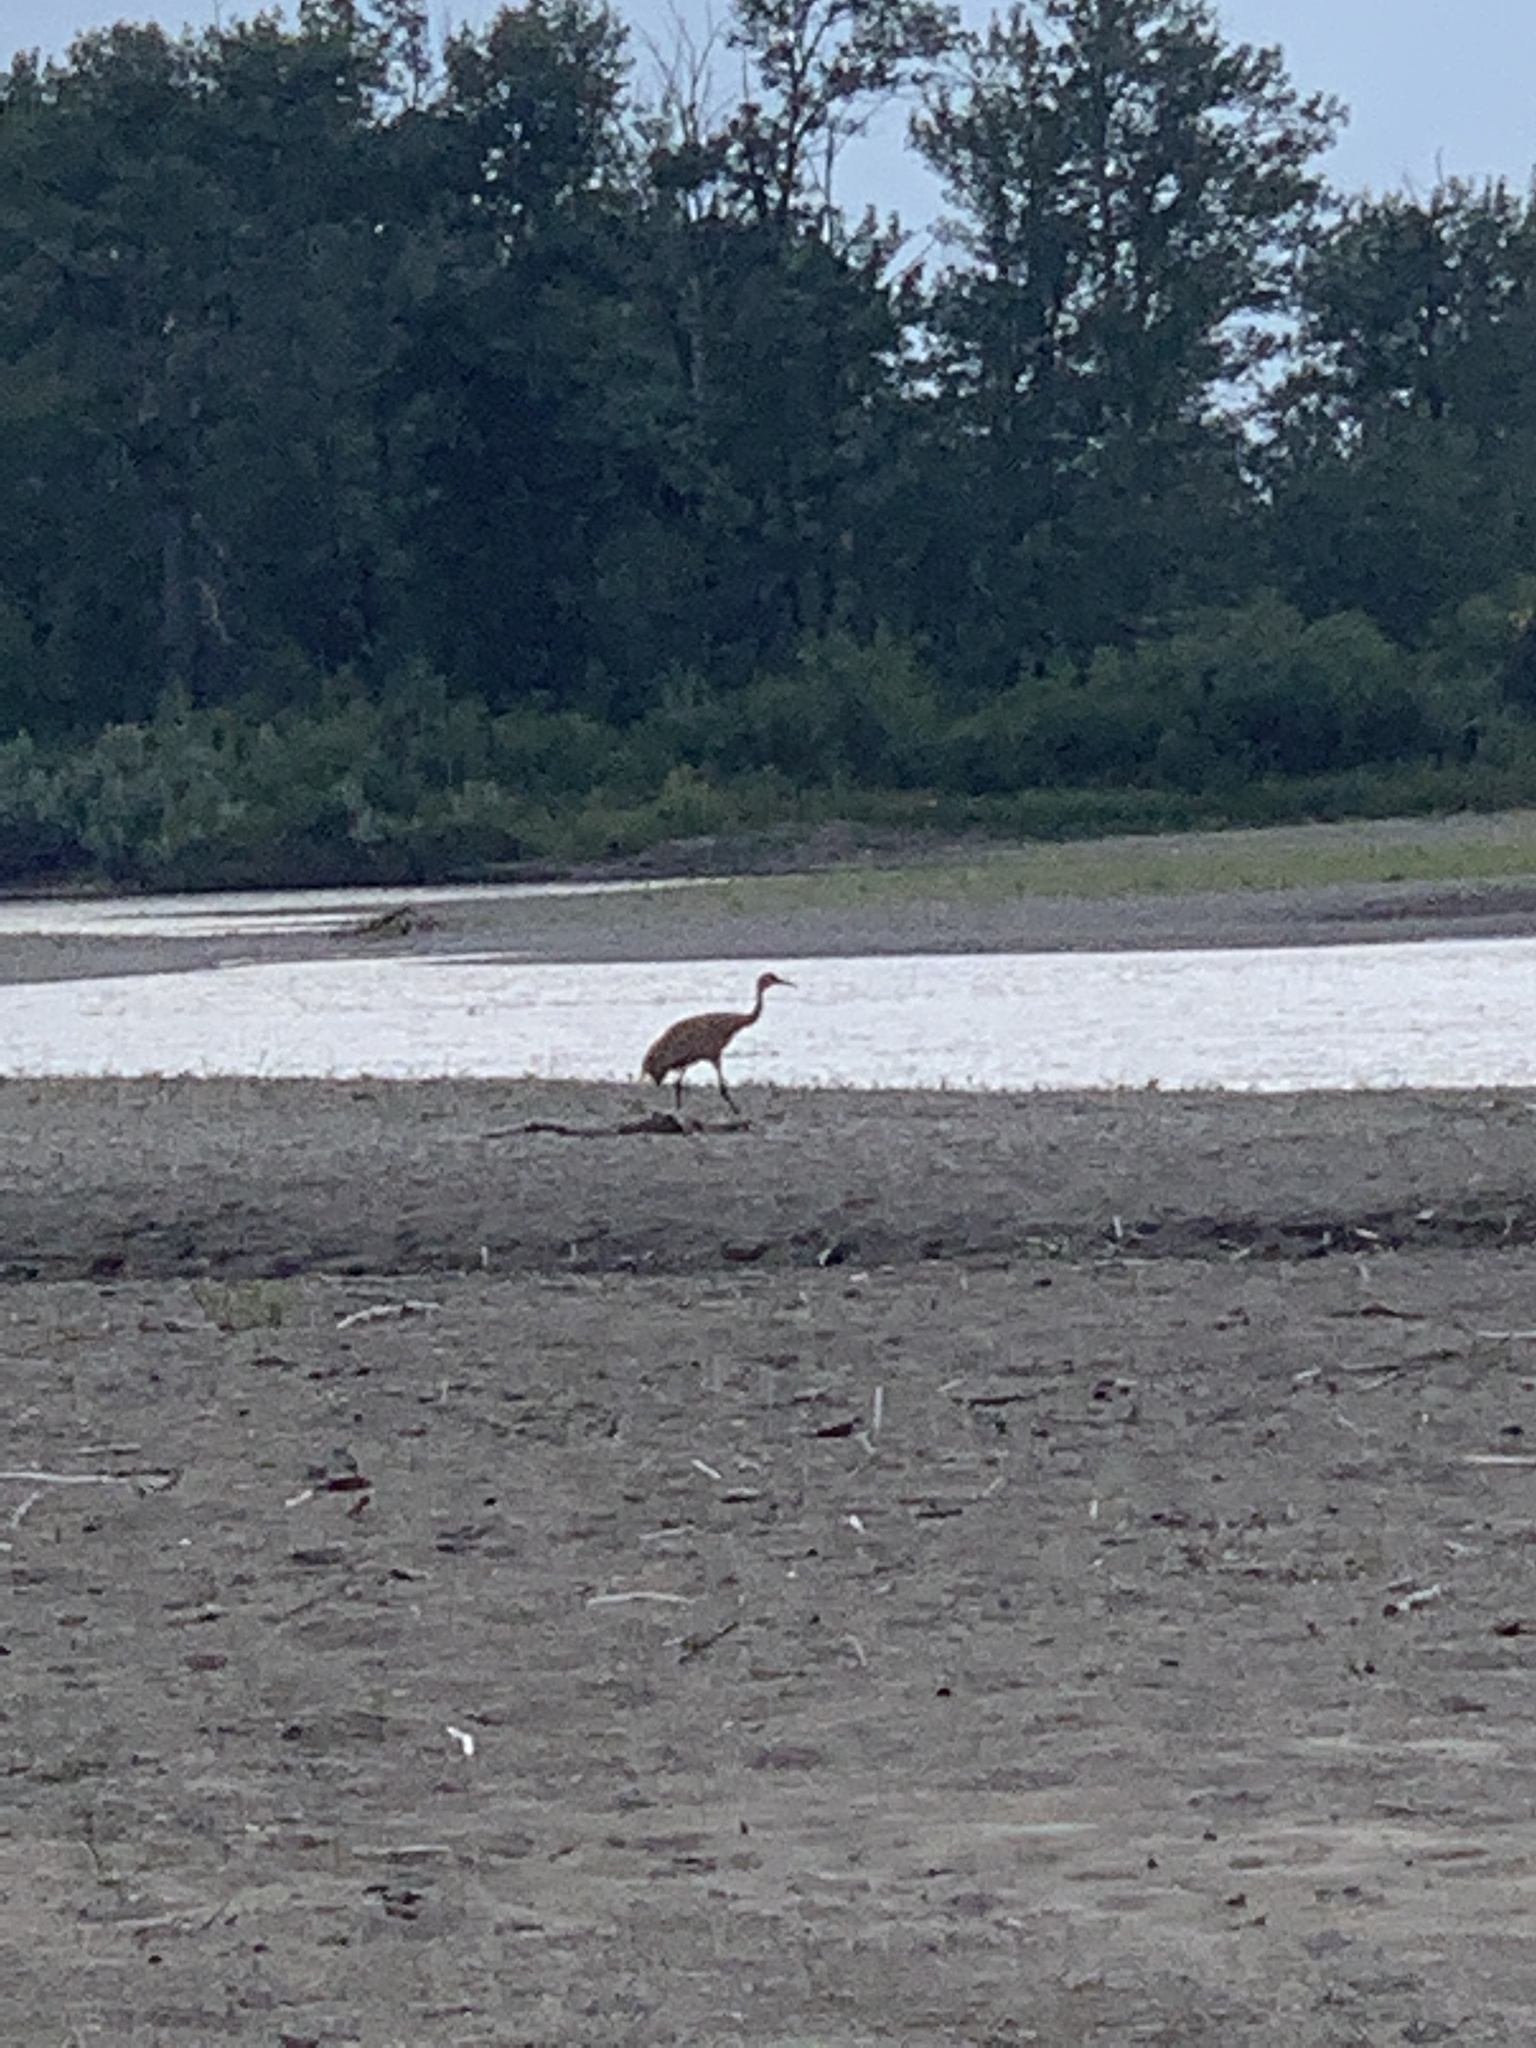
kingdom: Animalia
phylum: Chordata
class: Aves
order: Gruiformes
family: Gruidae
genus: Grus
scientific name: Grus canadensis
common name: Sandhill crane
